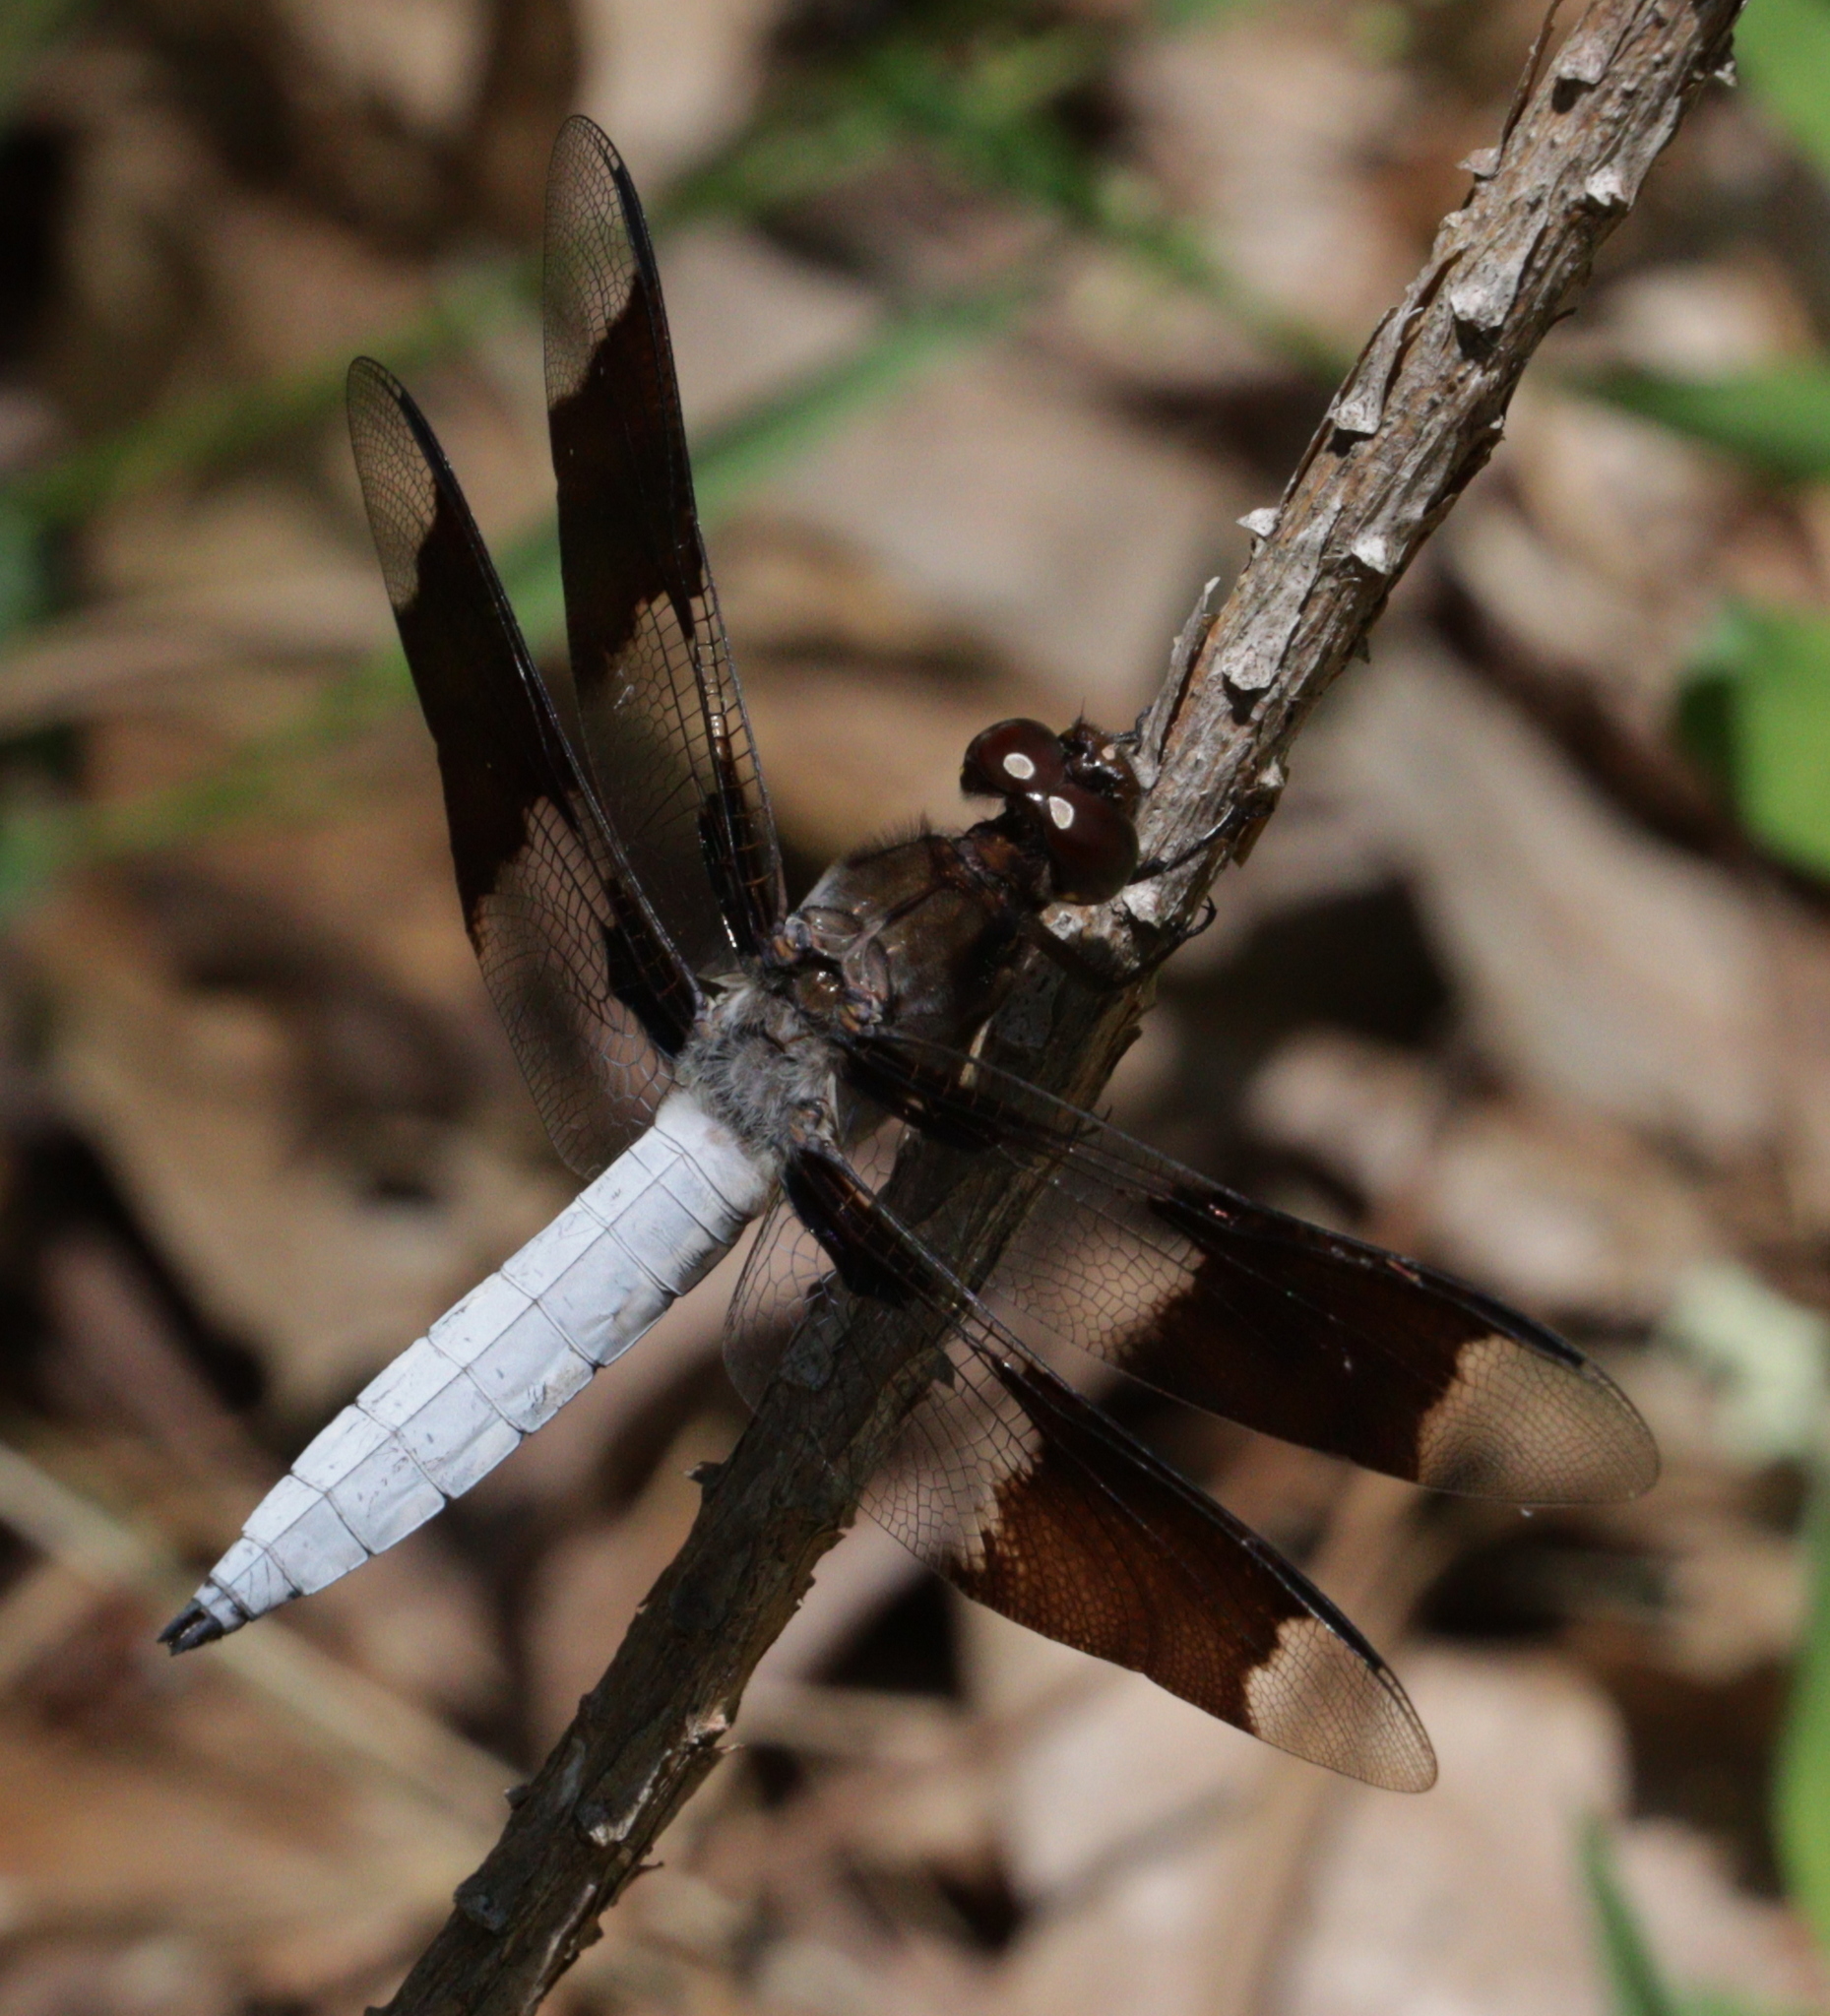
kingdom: Animalia
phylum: Arthropoda
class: Insecta
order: Odonata
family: Libellulidae
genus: Plathemis
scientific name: Plathemis lydia
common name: Common whitetail
